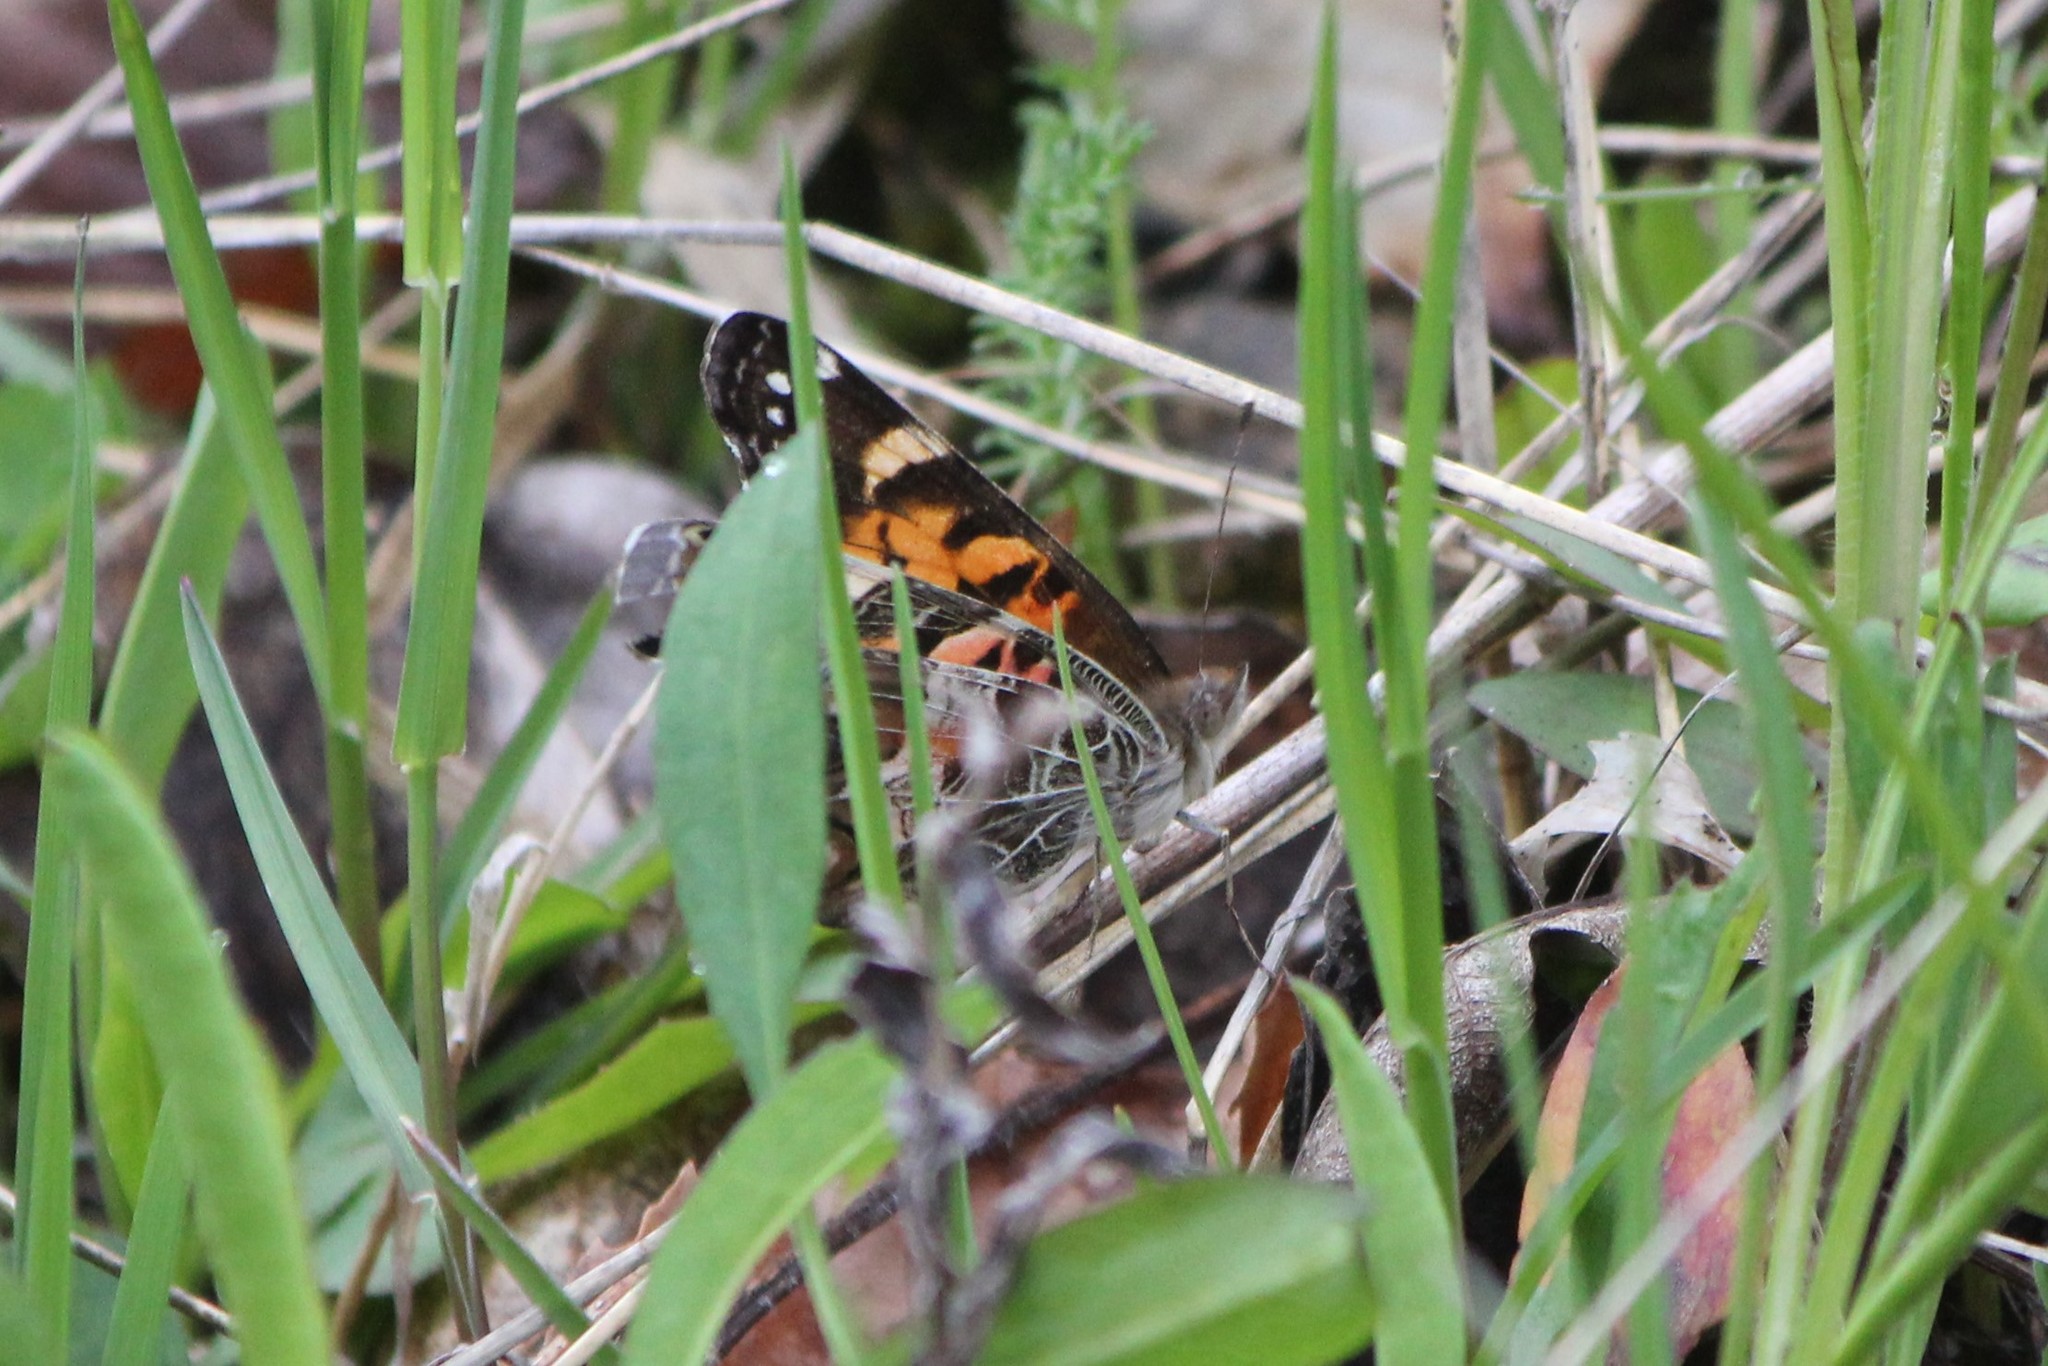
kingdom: Animalia
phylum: Arthropoda
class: Insecta
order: Lepidoptera
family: Nymphalidae
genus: Vanessa
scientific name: Vanessa virginiensis
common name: American lady
